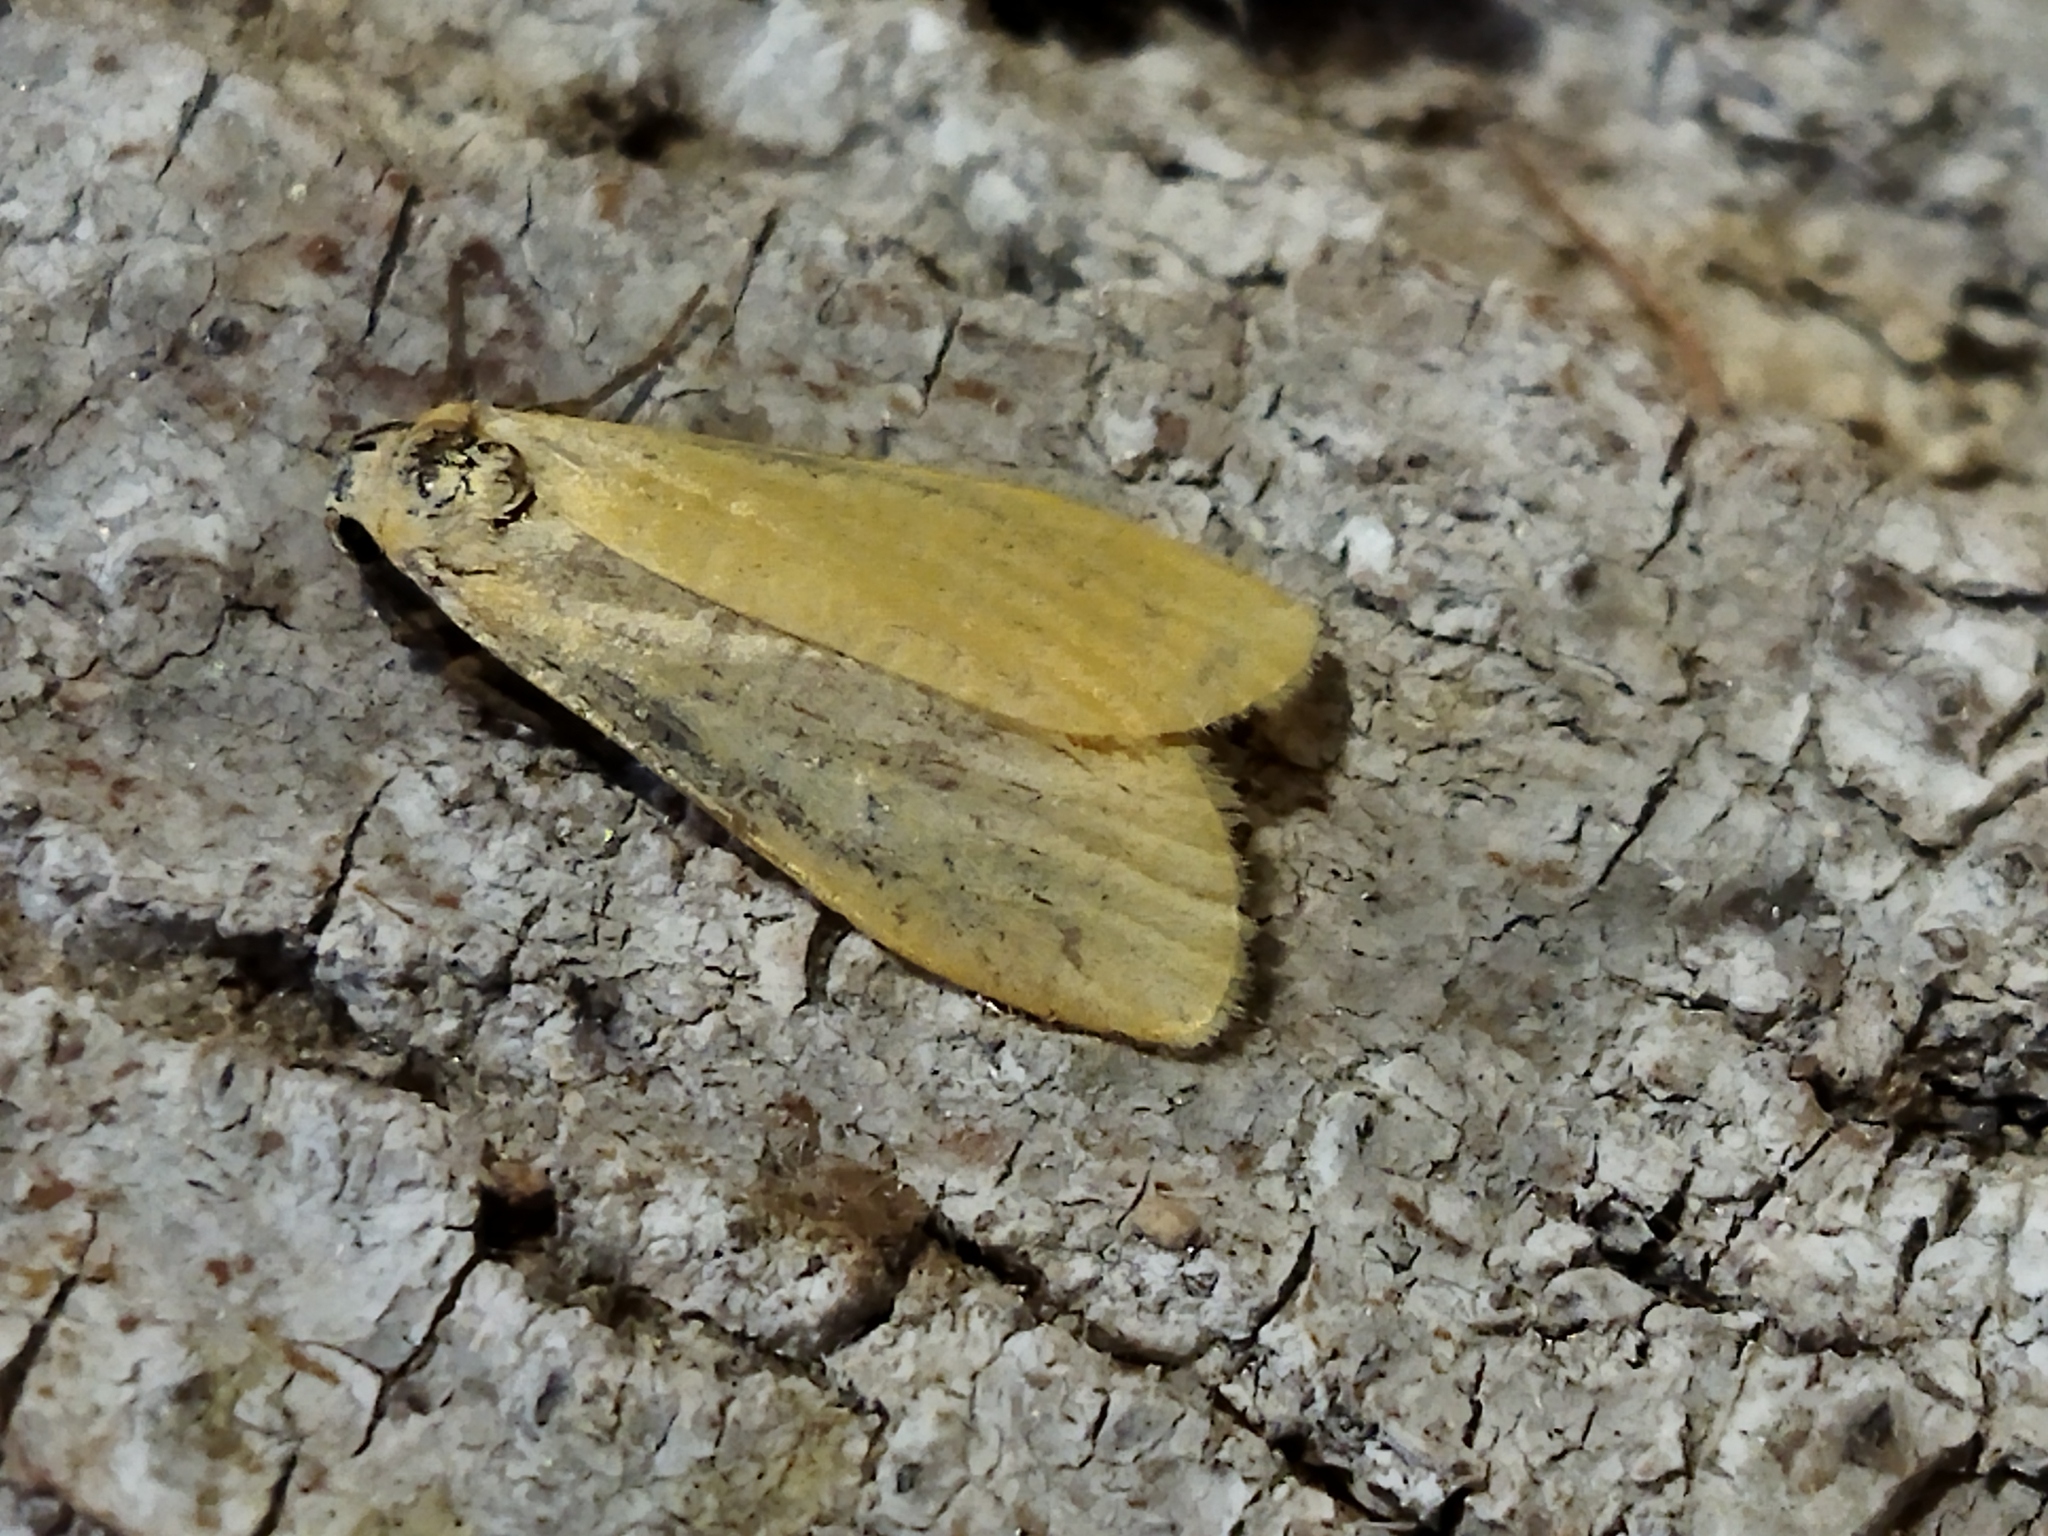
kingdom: Animalia
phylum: Arthropoda
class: Insecta
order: Lepidoptera
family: Erebidae
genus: Wittia
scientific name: Wittia sororcula
